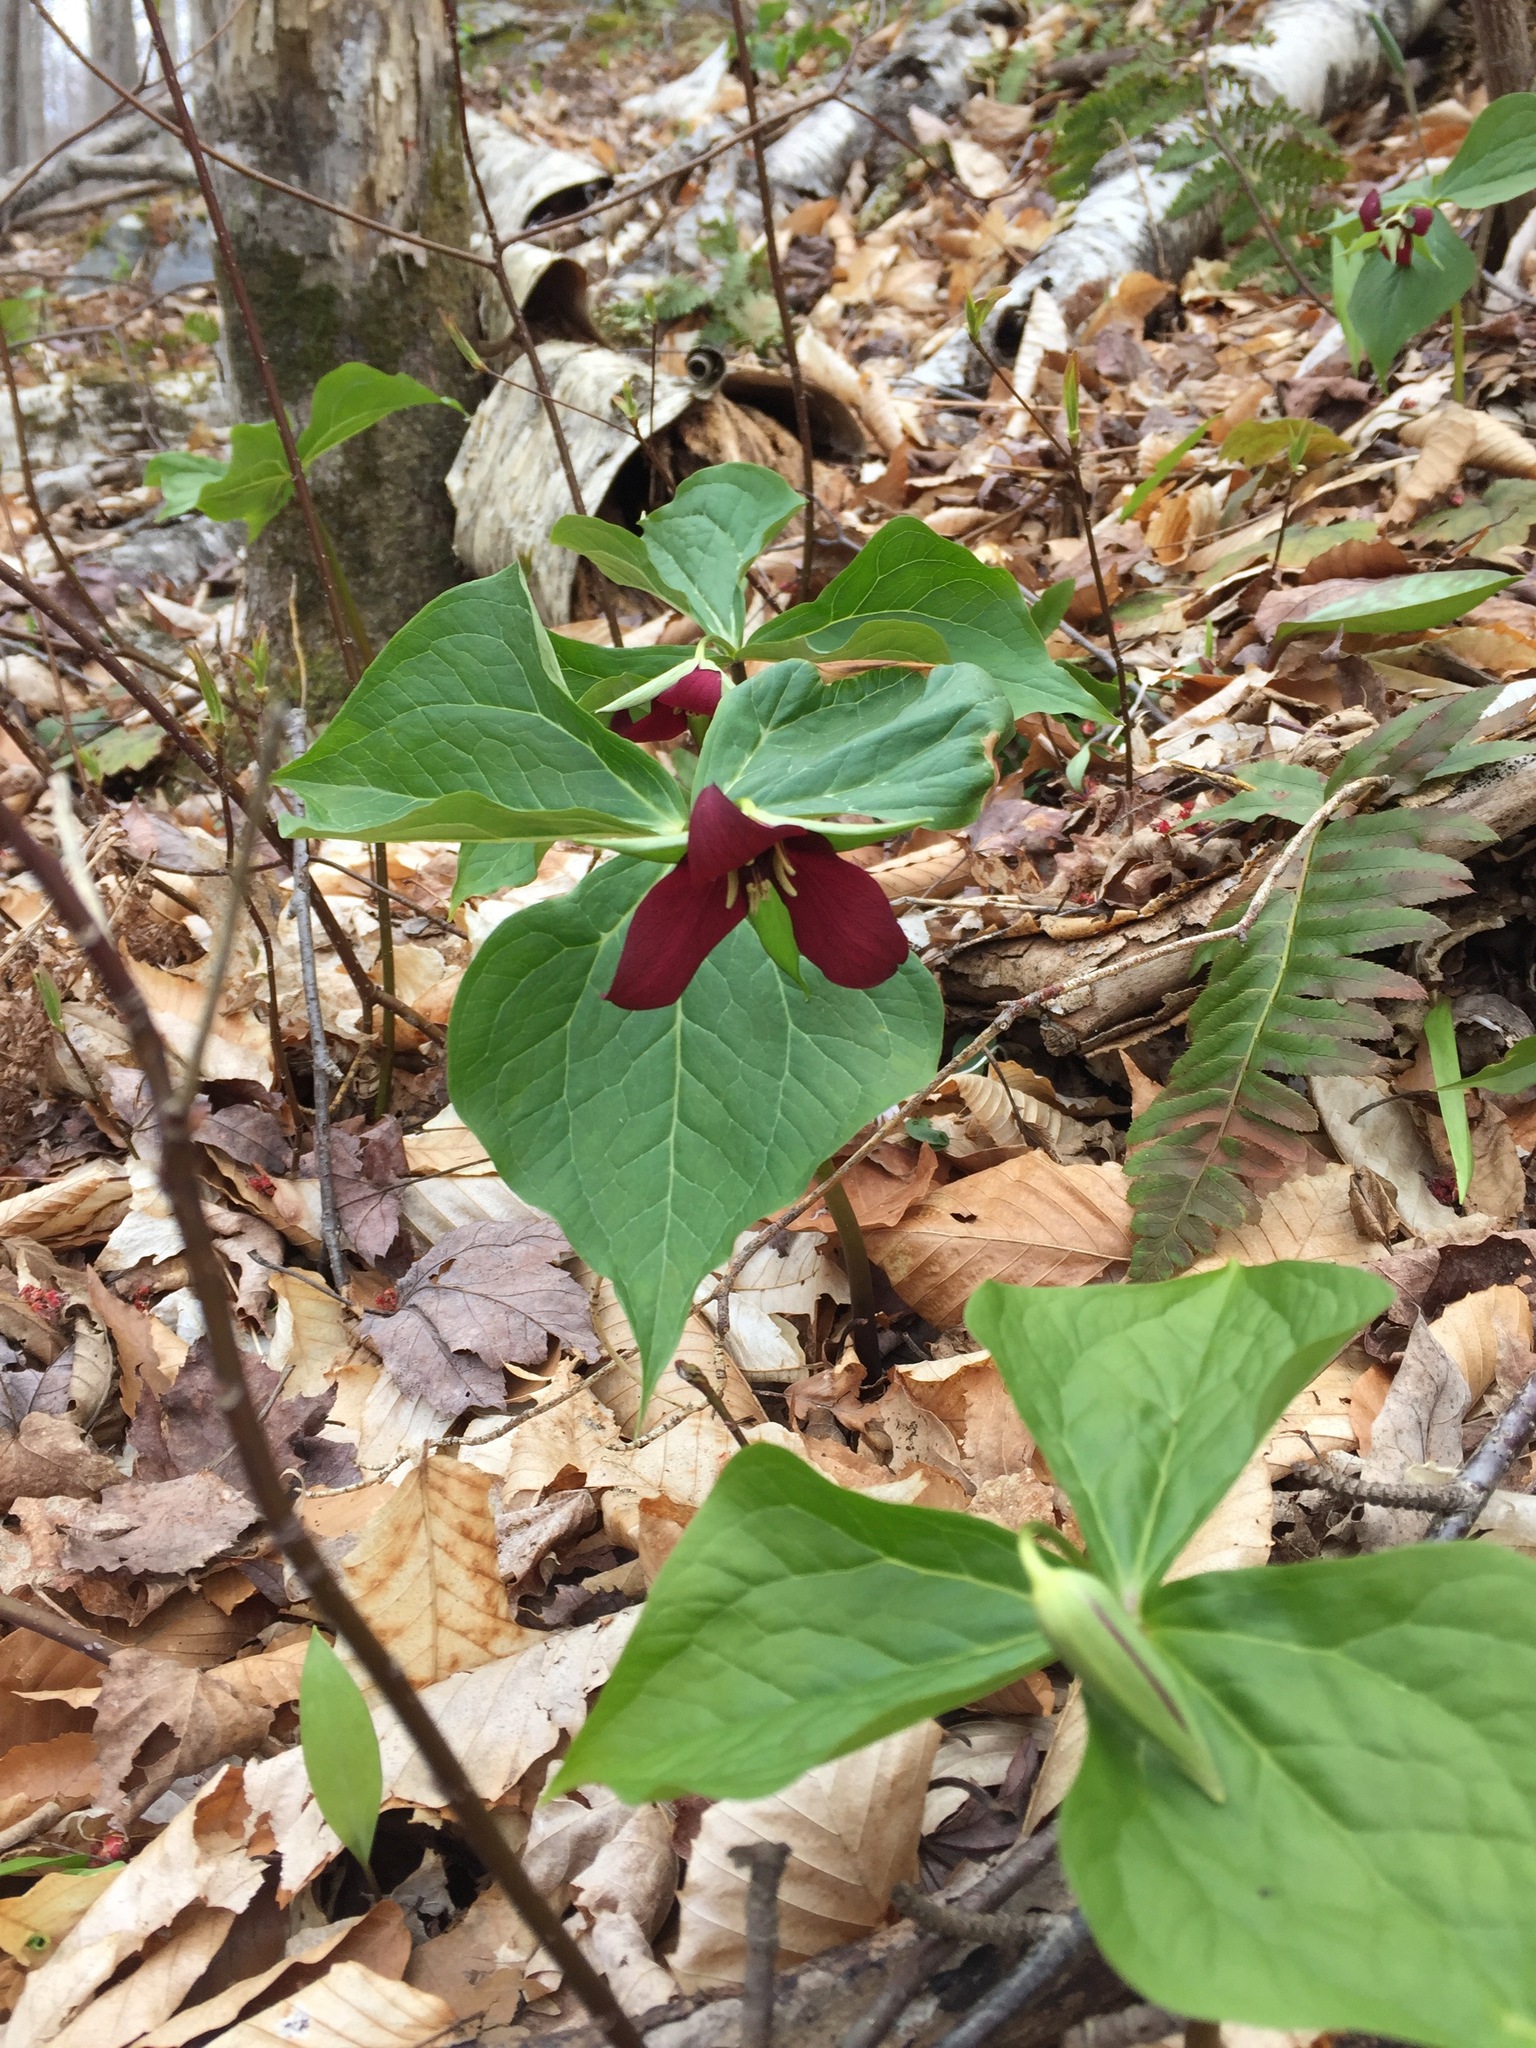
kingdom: Plantae
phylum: Tracheophyta
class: Liliopsida
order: Liliales
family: Melanthiaceae
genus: Trillium
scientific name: Trillium erectum
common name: Purple trillium
